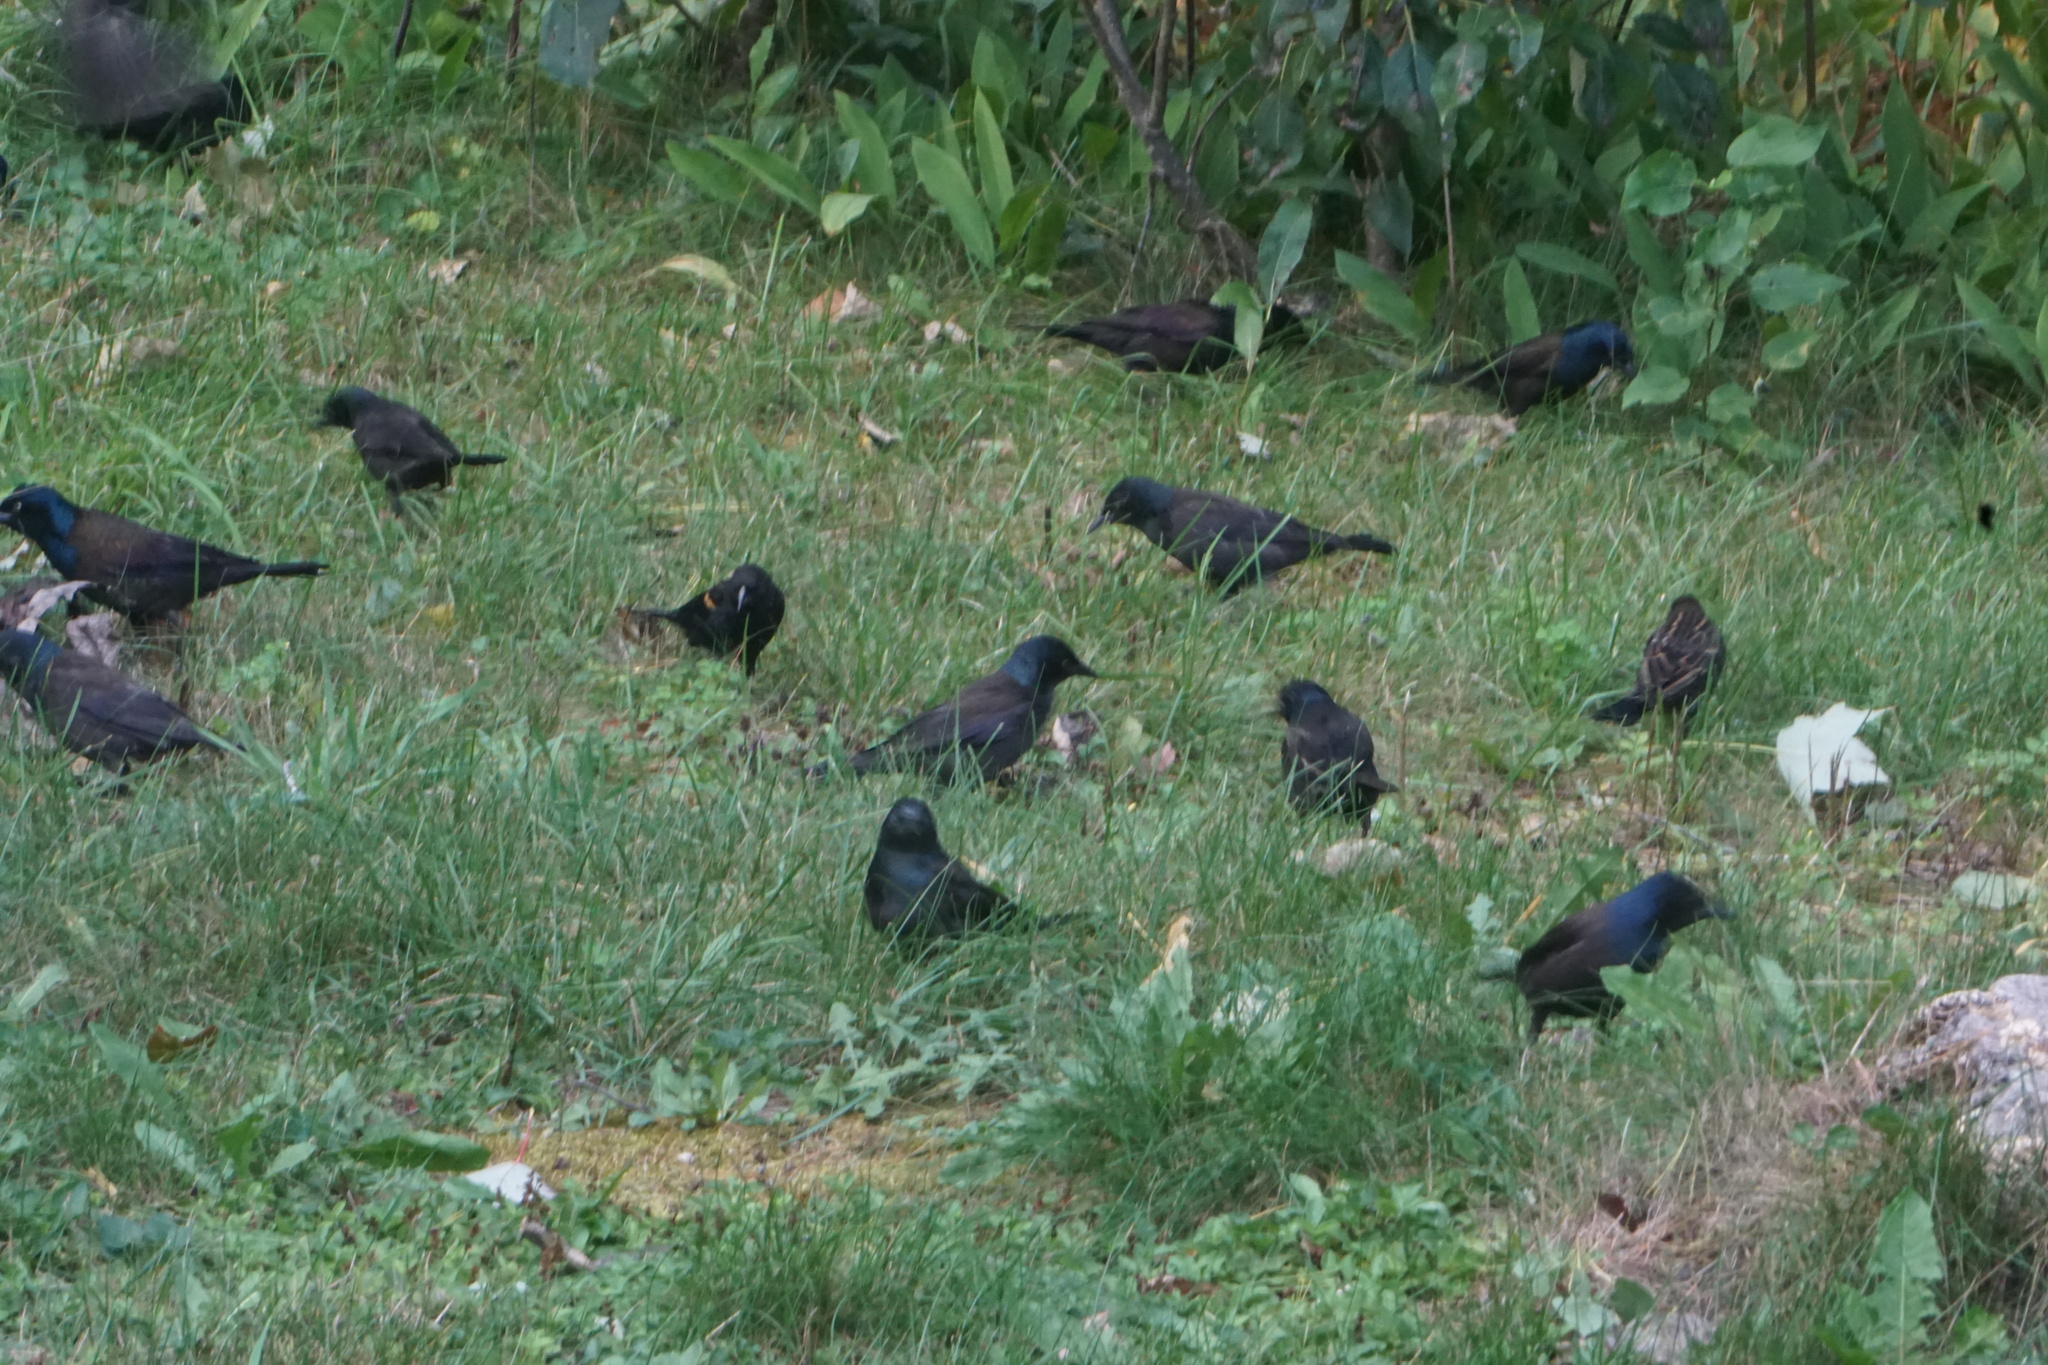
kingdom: Animalia
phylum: Chordata
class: Aves
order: Passeriformes
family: Icteridae
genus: Quiscalus
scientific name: Quiscalus quiscula
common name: Common grackle
